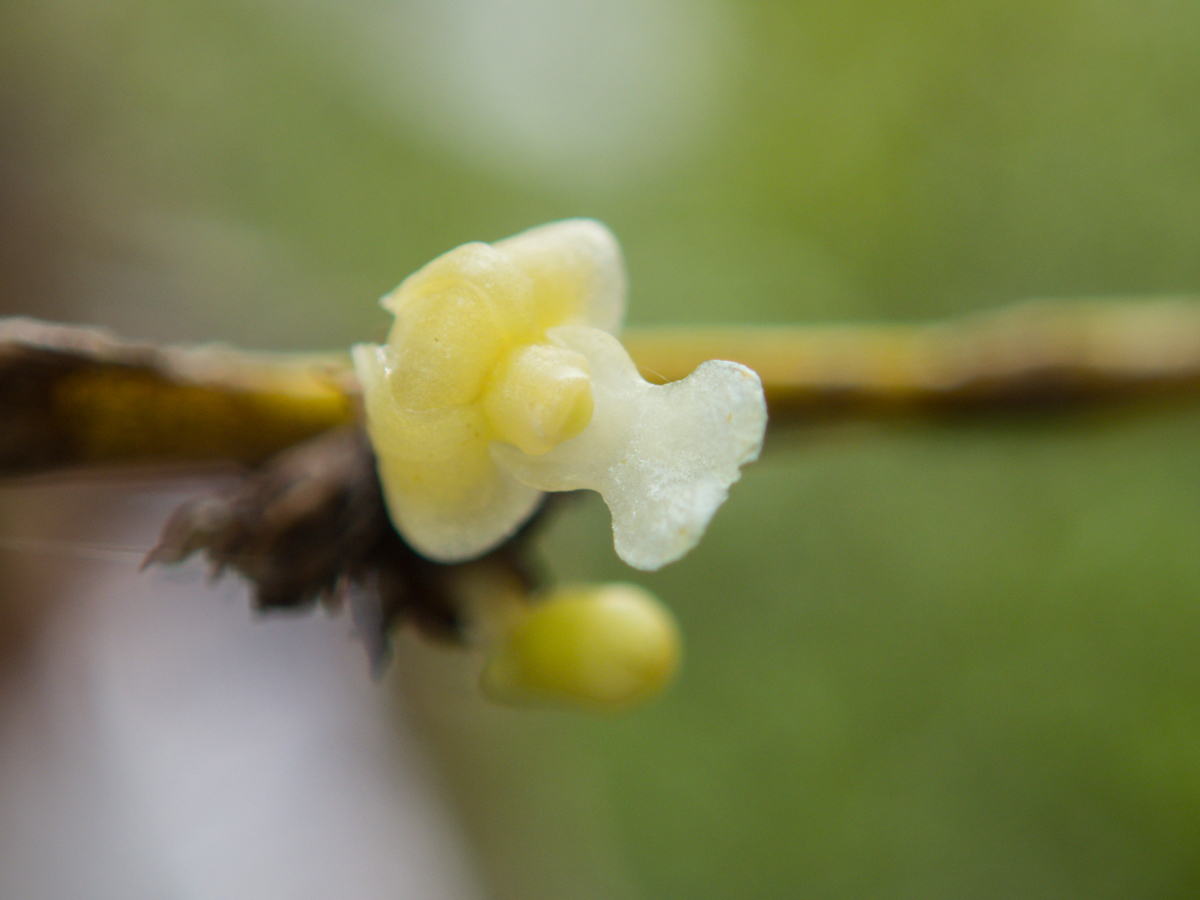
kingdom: Plantae
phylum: Tracheophyta
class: Liliopsida
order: Asparagales
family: Orchidaceae
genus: Dendrobium
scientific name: Dendrobium aloifolium
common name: Aloe-like dendrobium
